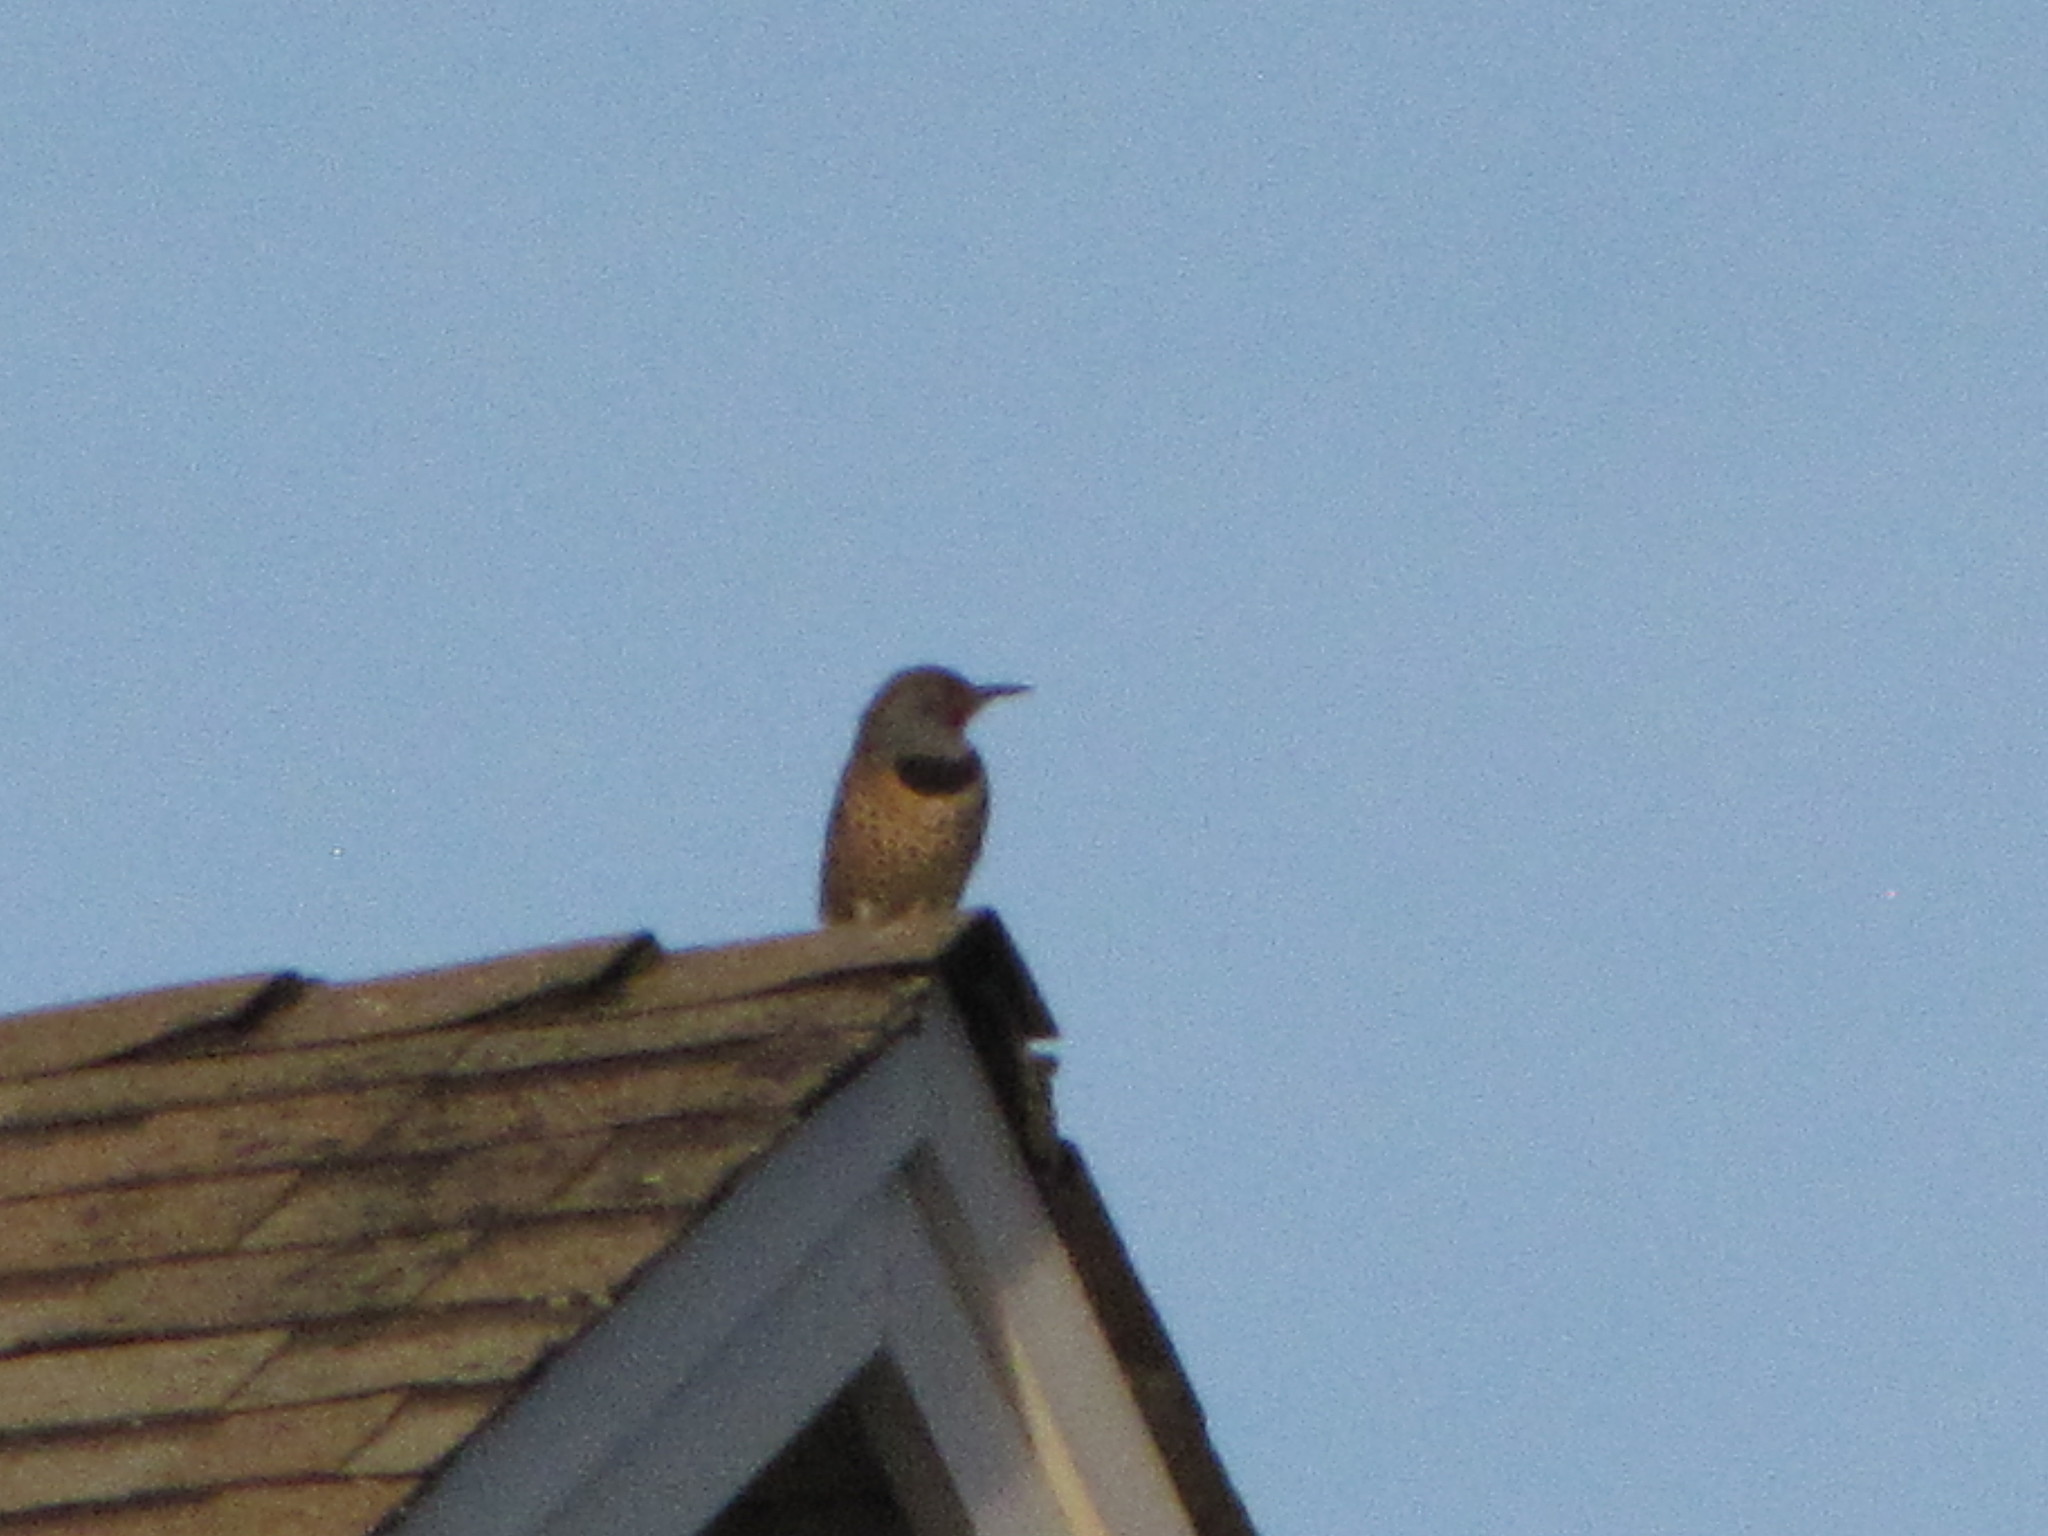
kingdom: Animalia
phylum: Chordata
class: Aves
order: Piciformes
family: Picidae
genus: Colaptes
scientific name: Colaptes auratus
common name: Northern flicker
